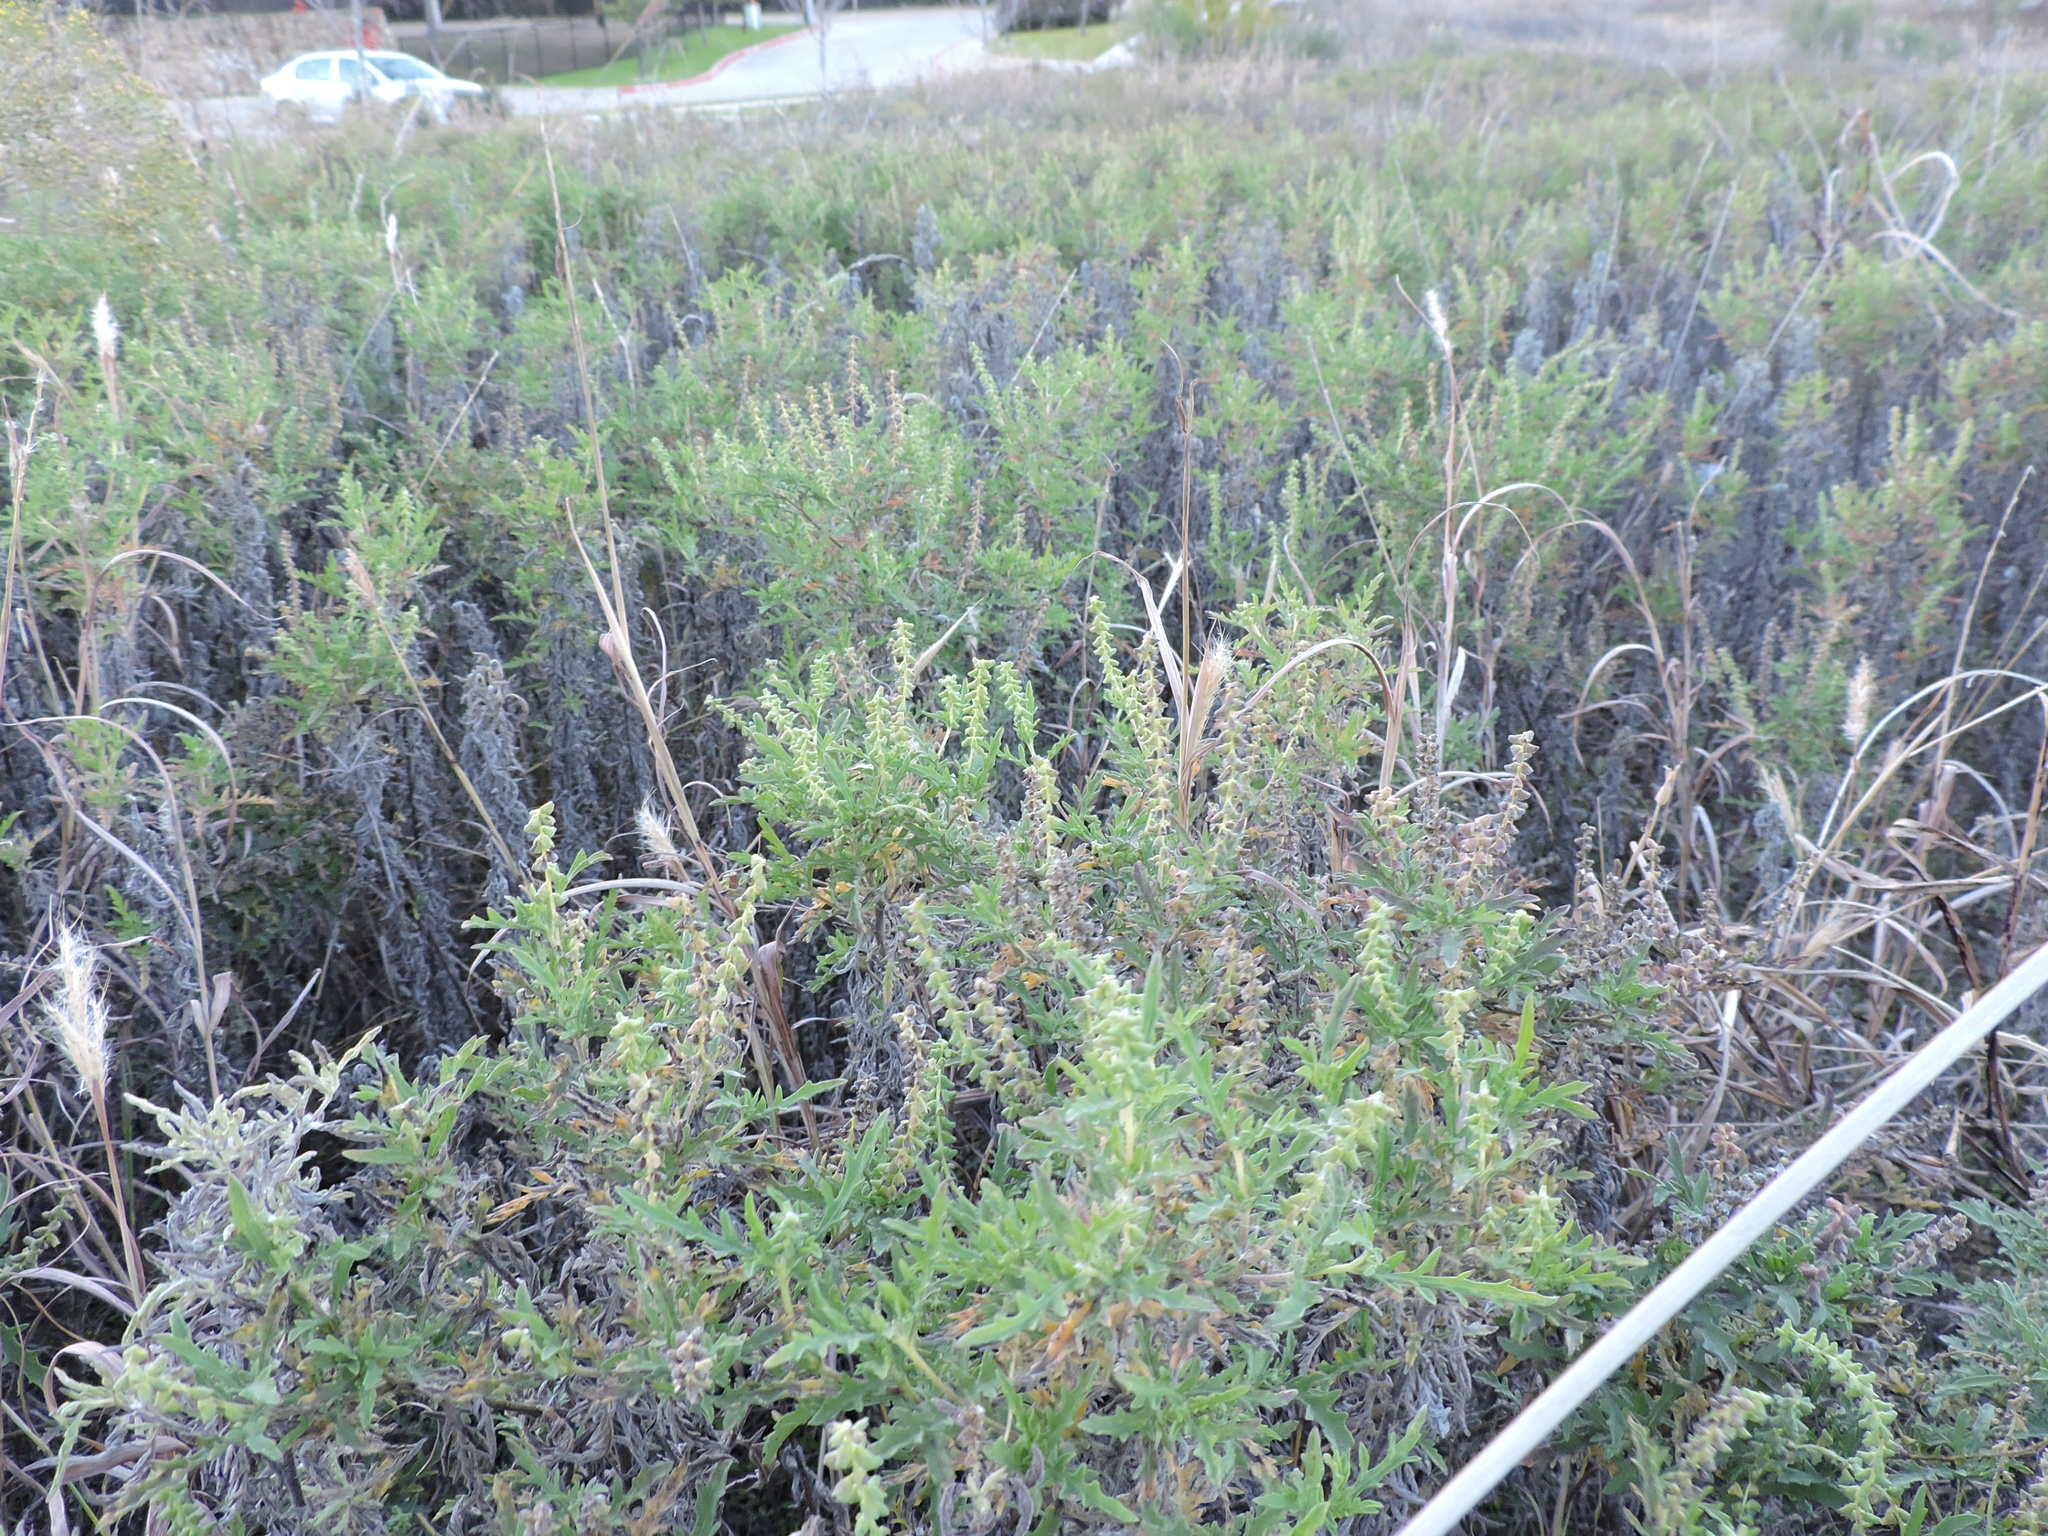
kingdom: Plantae
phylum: Tracheophyta
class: Magnoliopsida
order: Asterales
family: Asteraceae
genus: Ambrosia
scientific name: Ambrosia psilostachya
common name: Perennial ragweed
